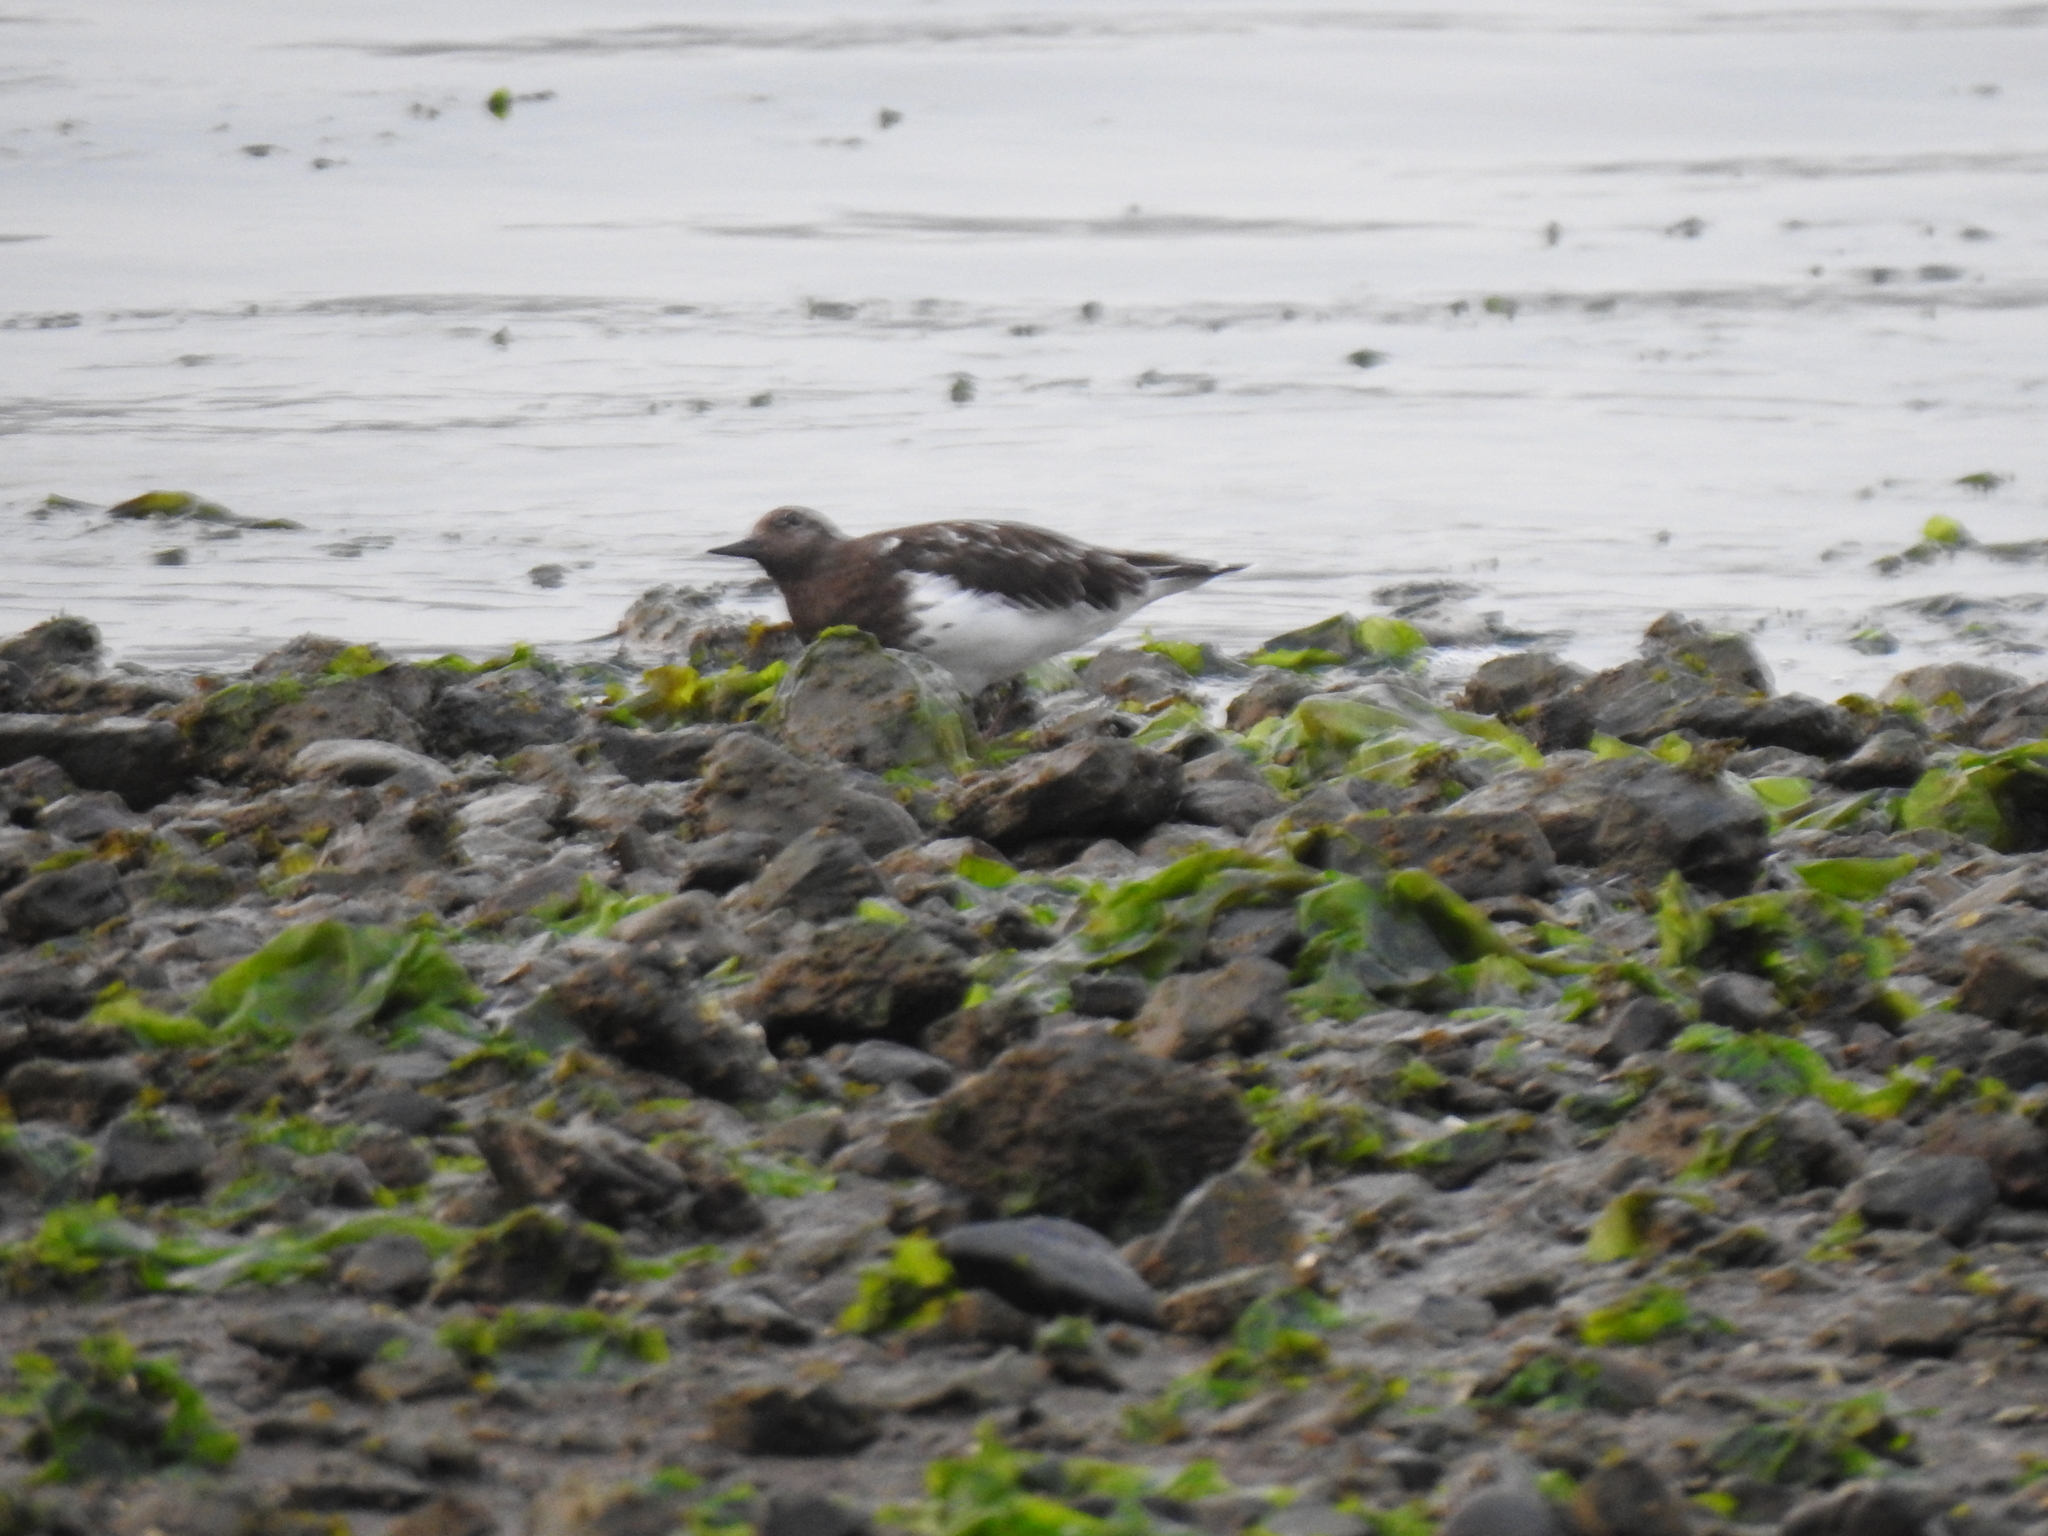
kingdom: Animalia
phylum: Chordata
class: Aves
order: Charadriiformes
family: Scolopacidae
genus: Arenaria
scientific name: Arenaria melanocephala
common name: Black turnstone
